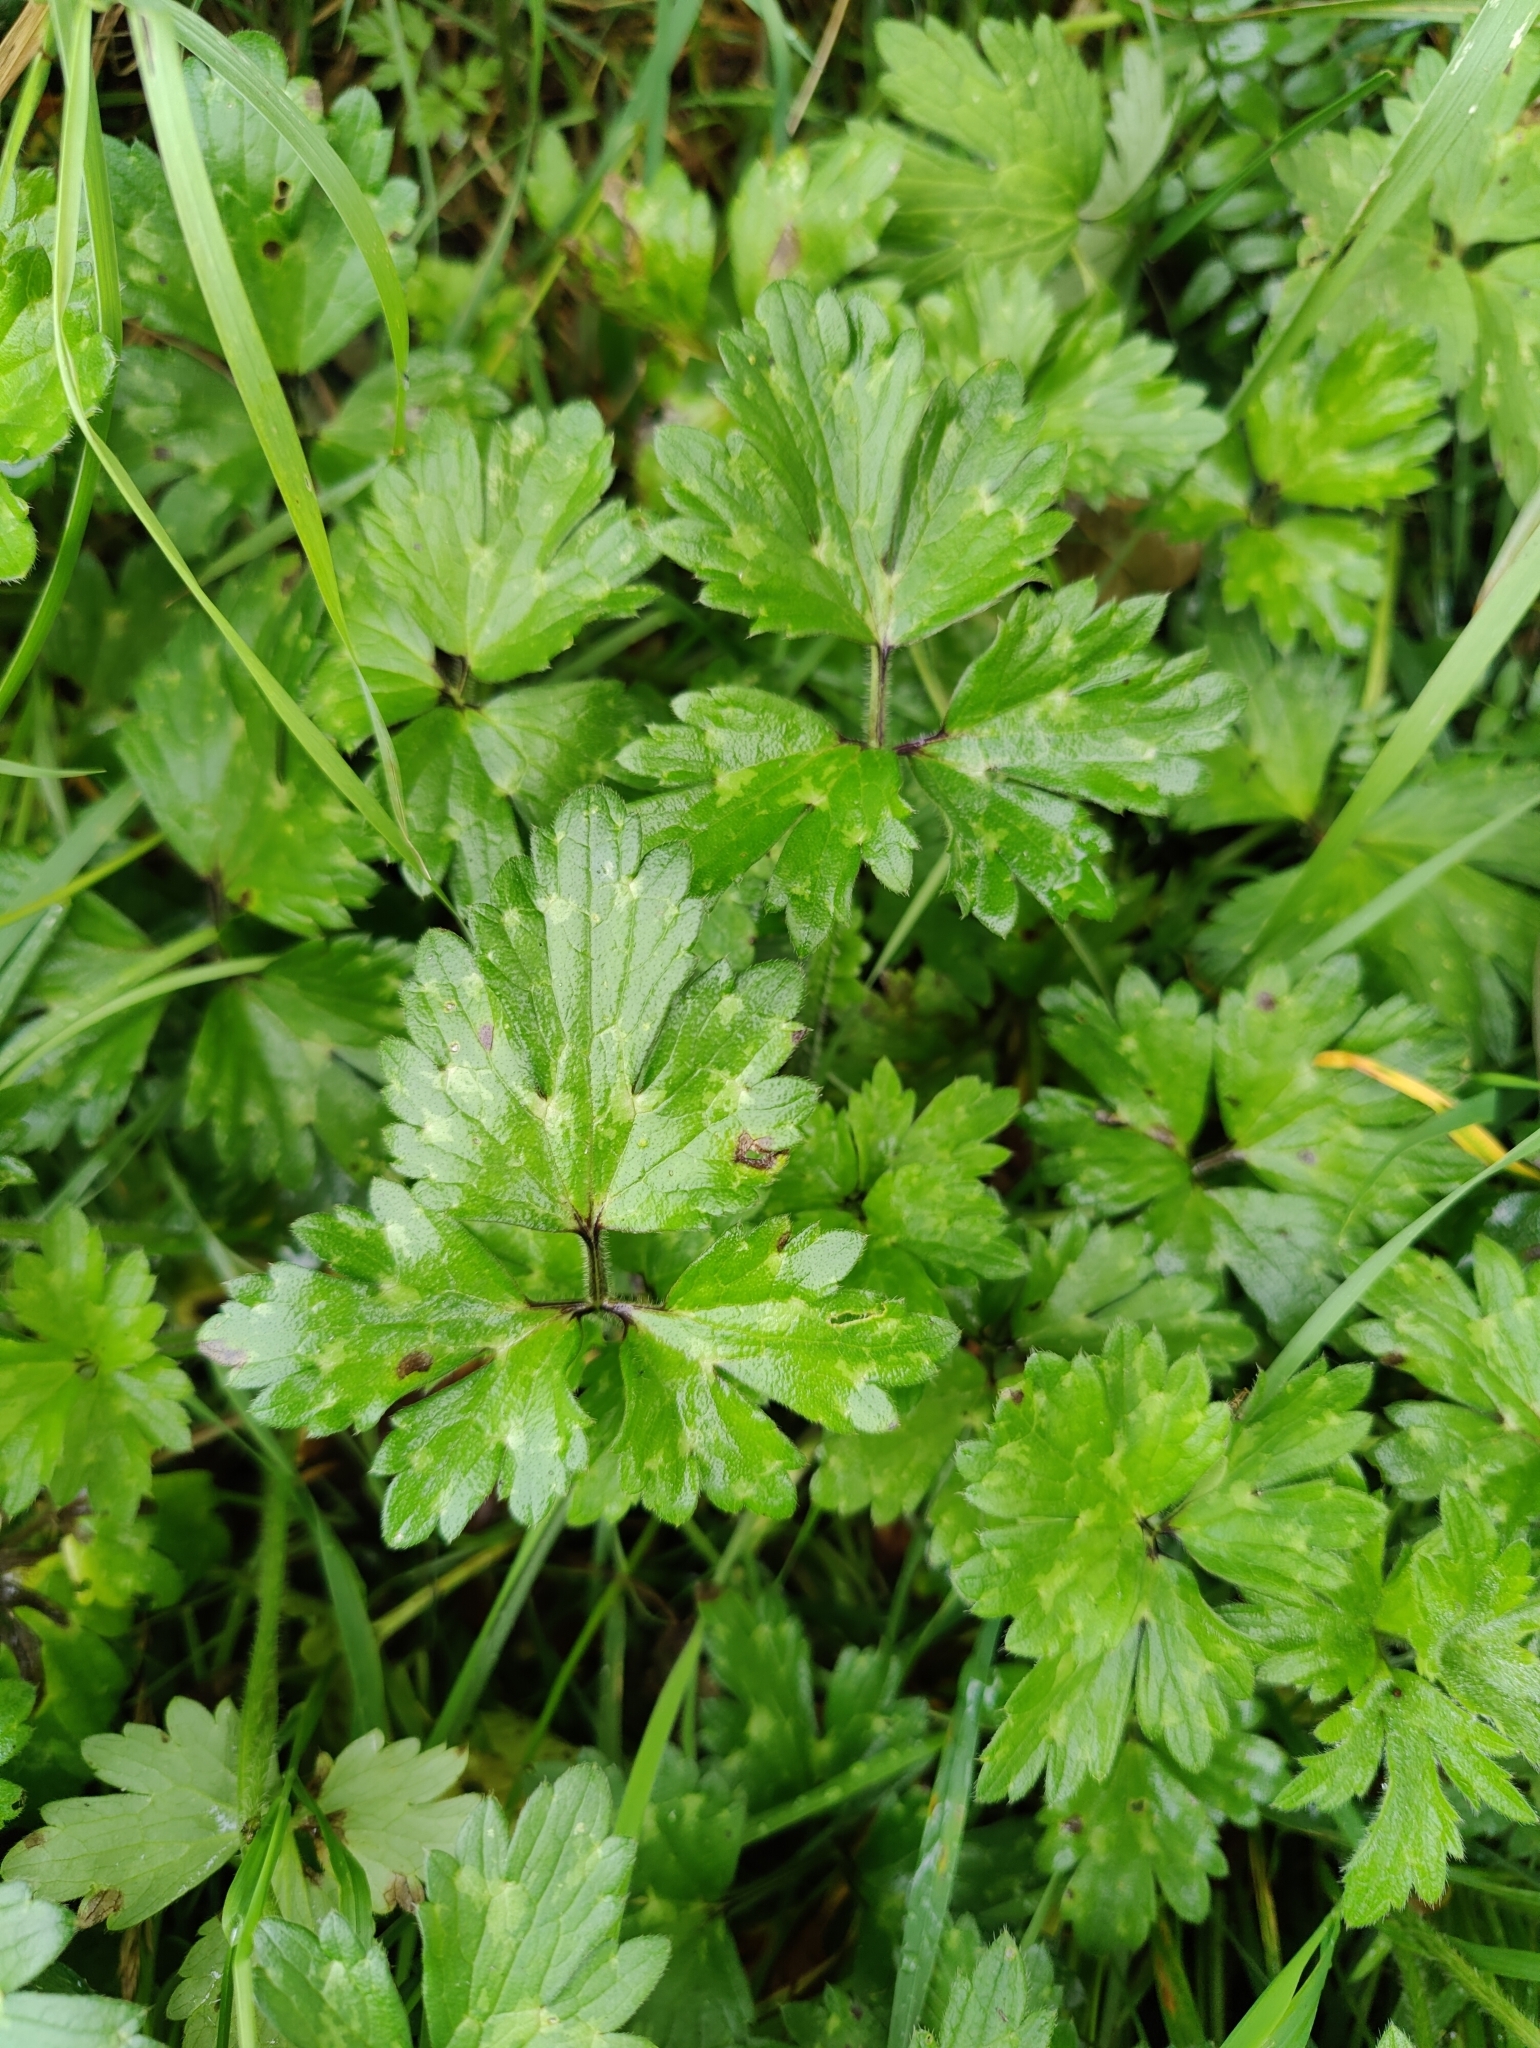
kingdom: Plantae
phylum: Tracheophyta
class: Magnoliopsida
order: Ranunculales
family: Ranunculaceae
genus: Ranunculus
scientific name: Ranunculus repens
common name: Creeping buttercup
